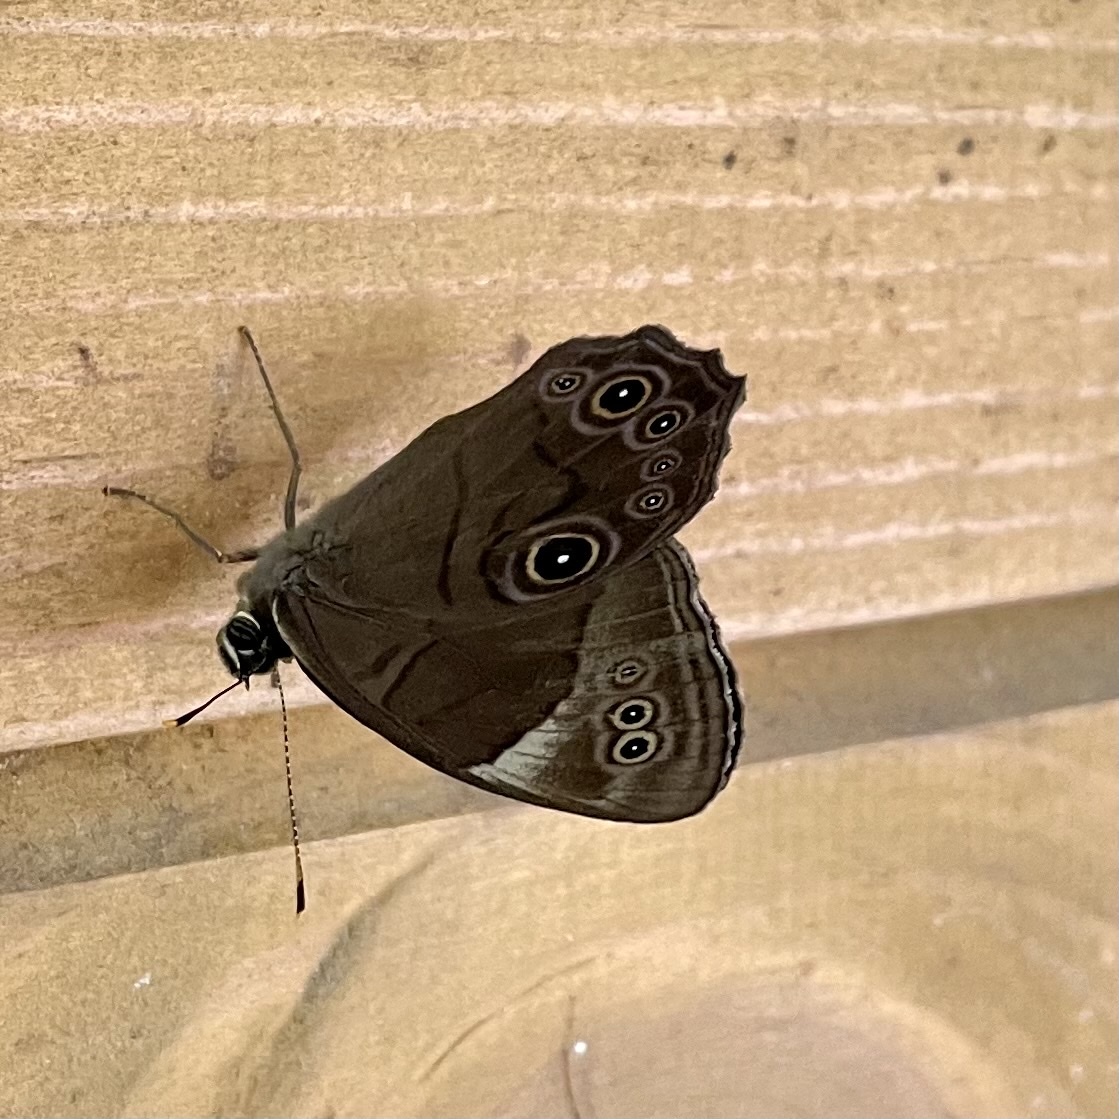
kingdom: Animalia
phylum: Arthropoda
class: Insecta
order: Lepidoptera
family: Nymphalidae
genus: Lethe
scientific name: Lethe diana
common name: Diana treebrown
